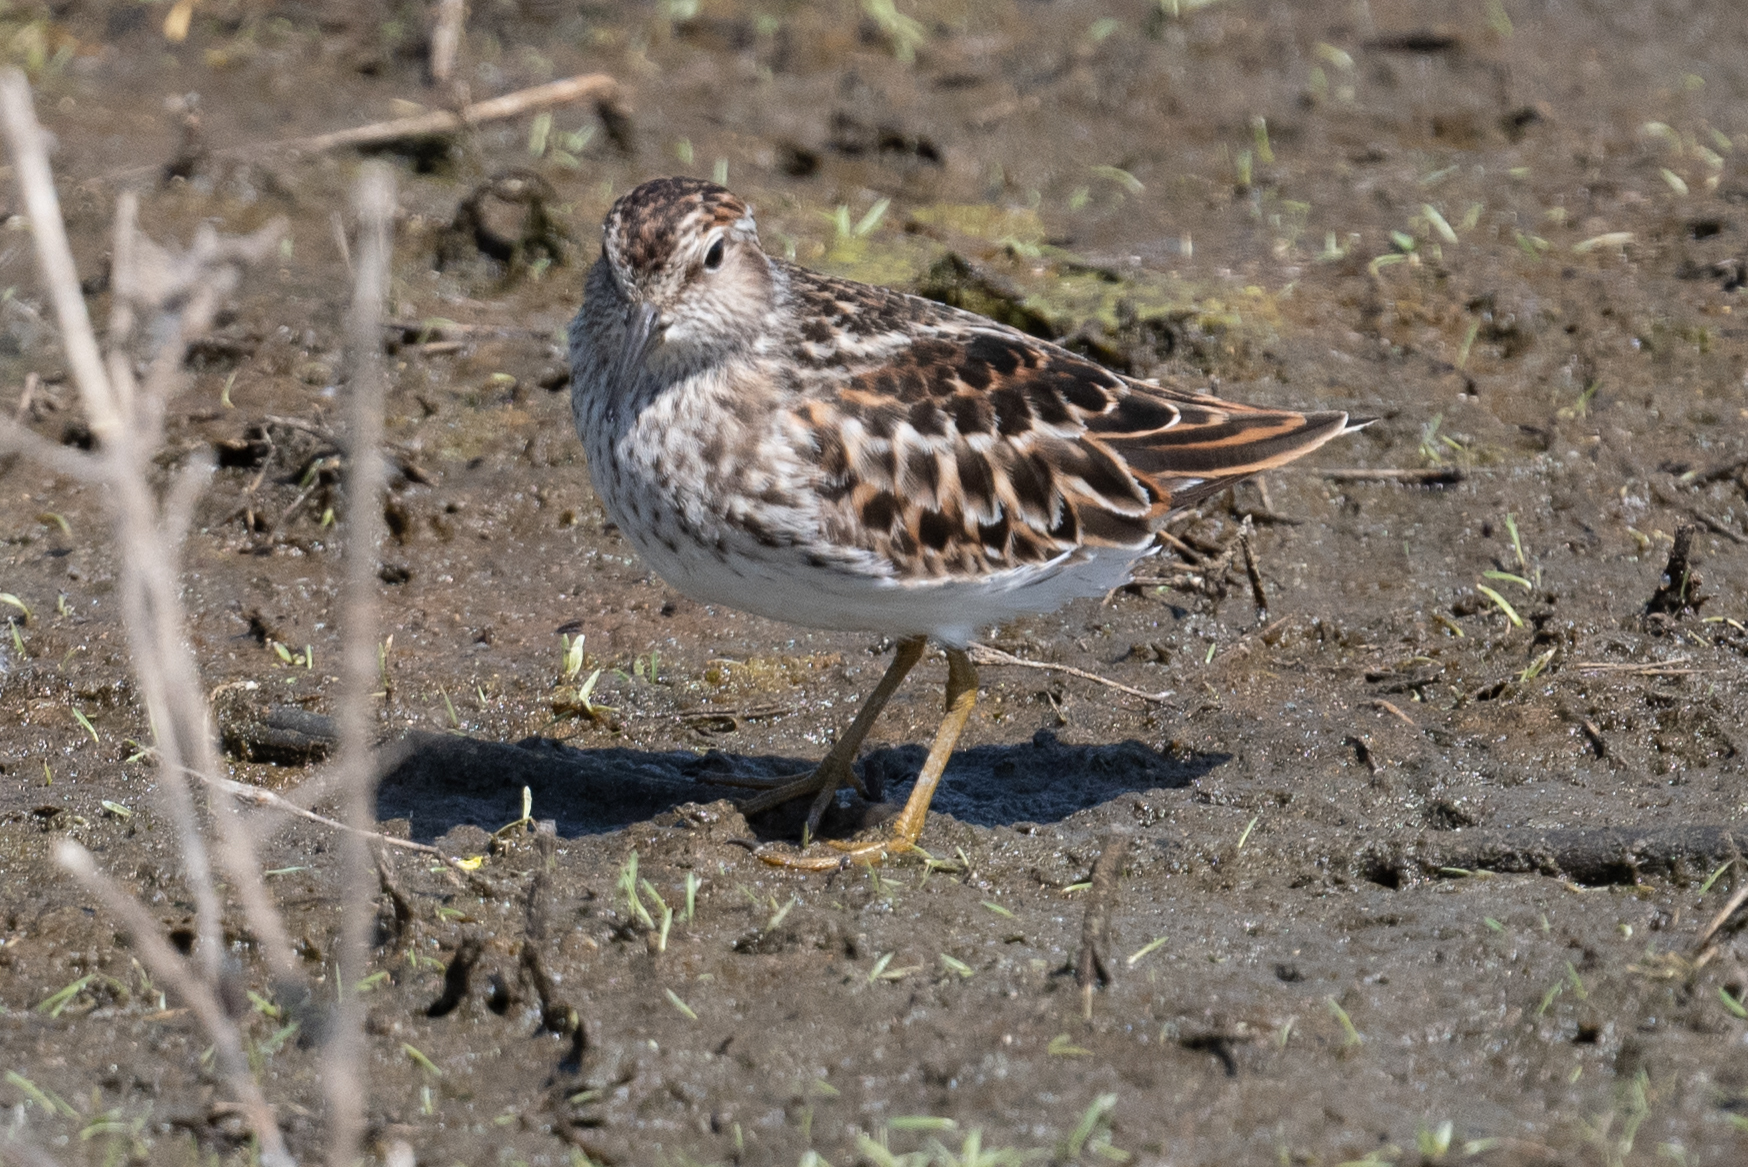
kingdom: Animalia
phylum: Chordata
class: Aves
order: Charadriiformes
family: Scolopacidae
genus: Calidris
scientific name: Calidris minutilla
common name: Least sandpiper
